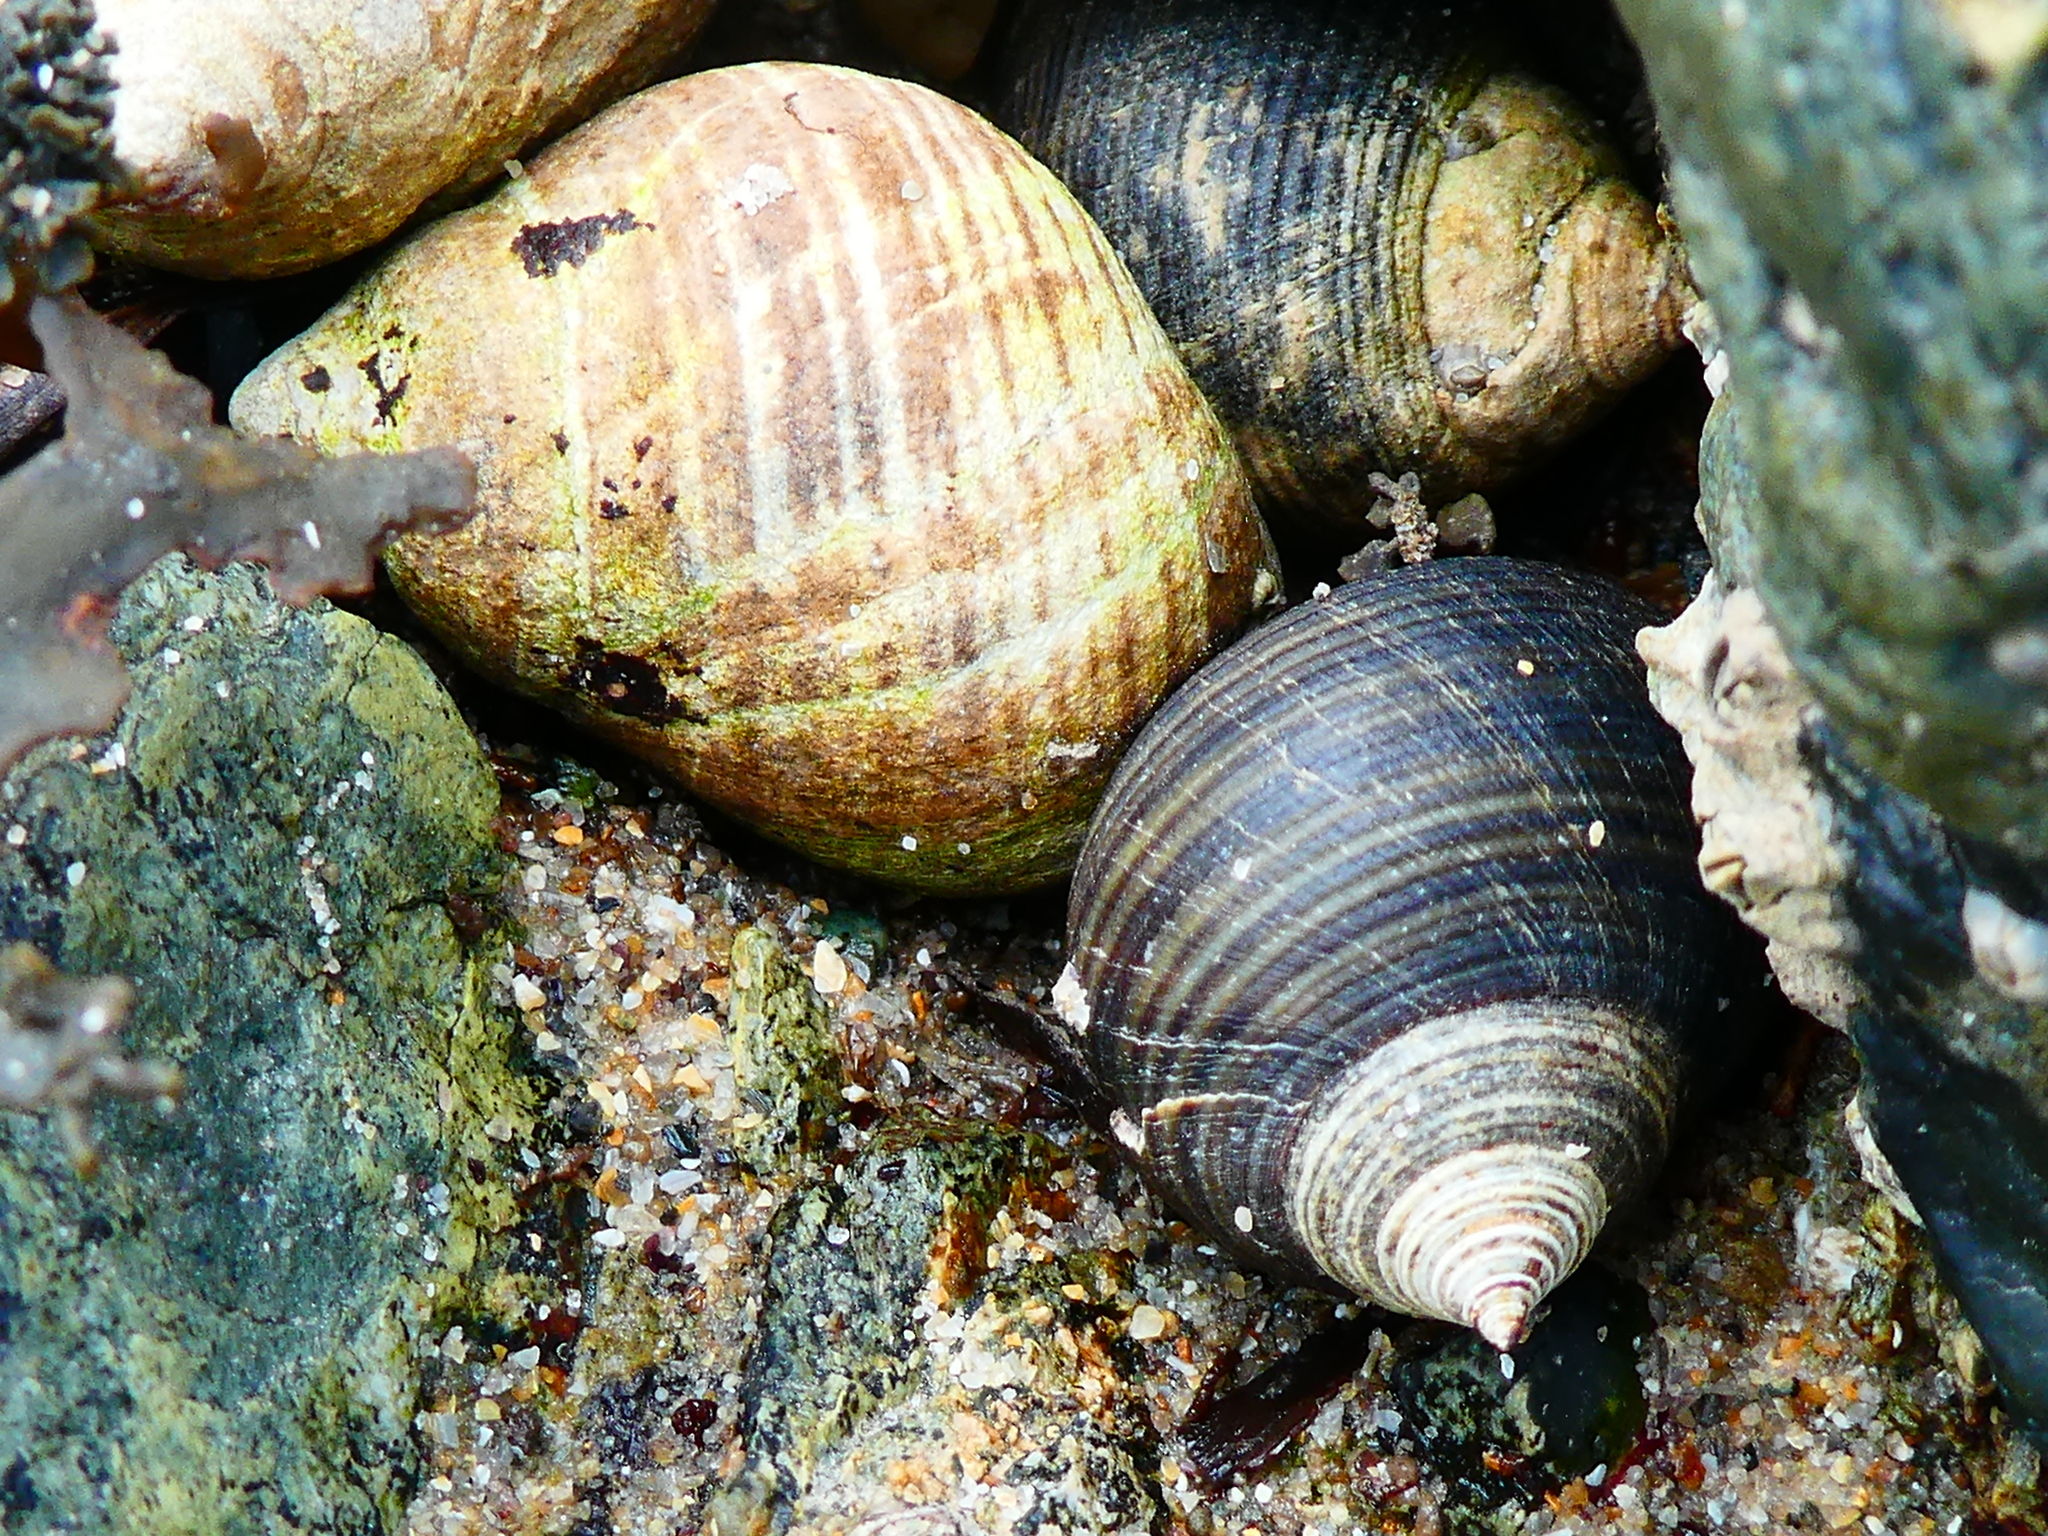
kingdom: Animalia
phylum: Mollusca
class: Gastropoda
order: Littorinimorpha
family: Littorinidae
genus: Littorina
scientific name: Littorina littorea
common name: Common periwinkle
